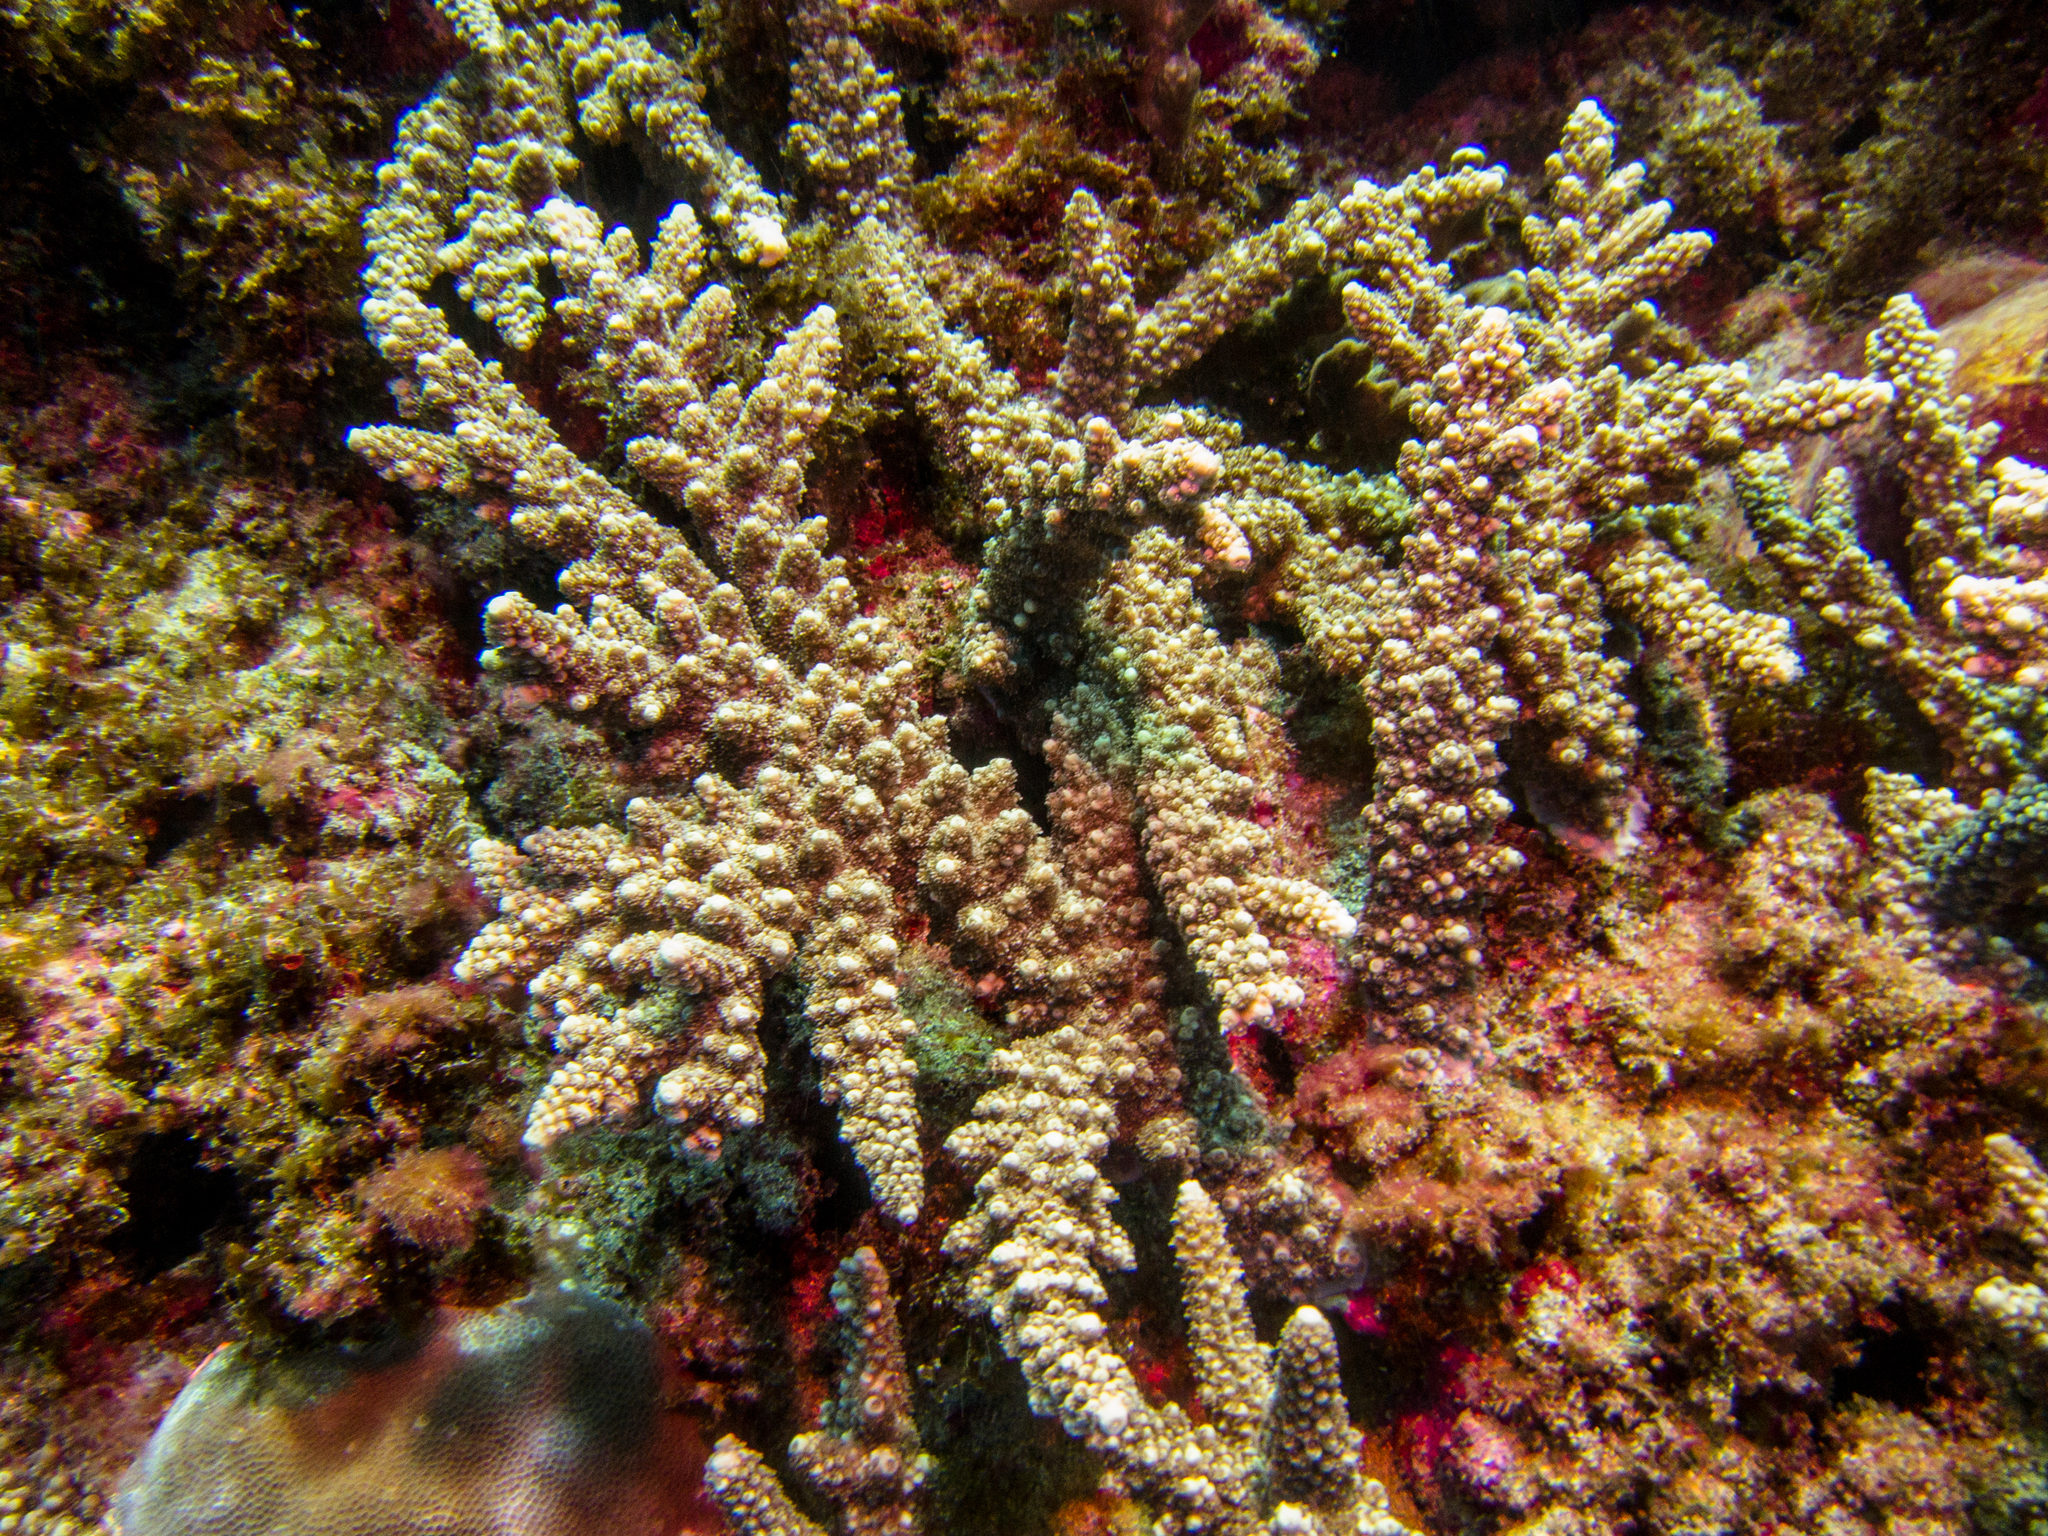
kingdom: Animalia
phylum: Cnidaria
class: Anthozoa
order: Scleractinia
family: Acroporidae
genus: Acropora
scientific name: Acropora florida
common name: Branch coral
